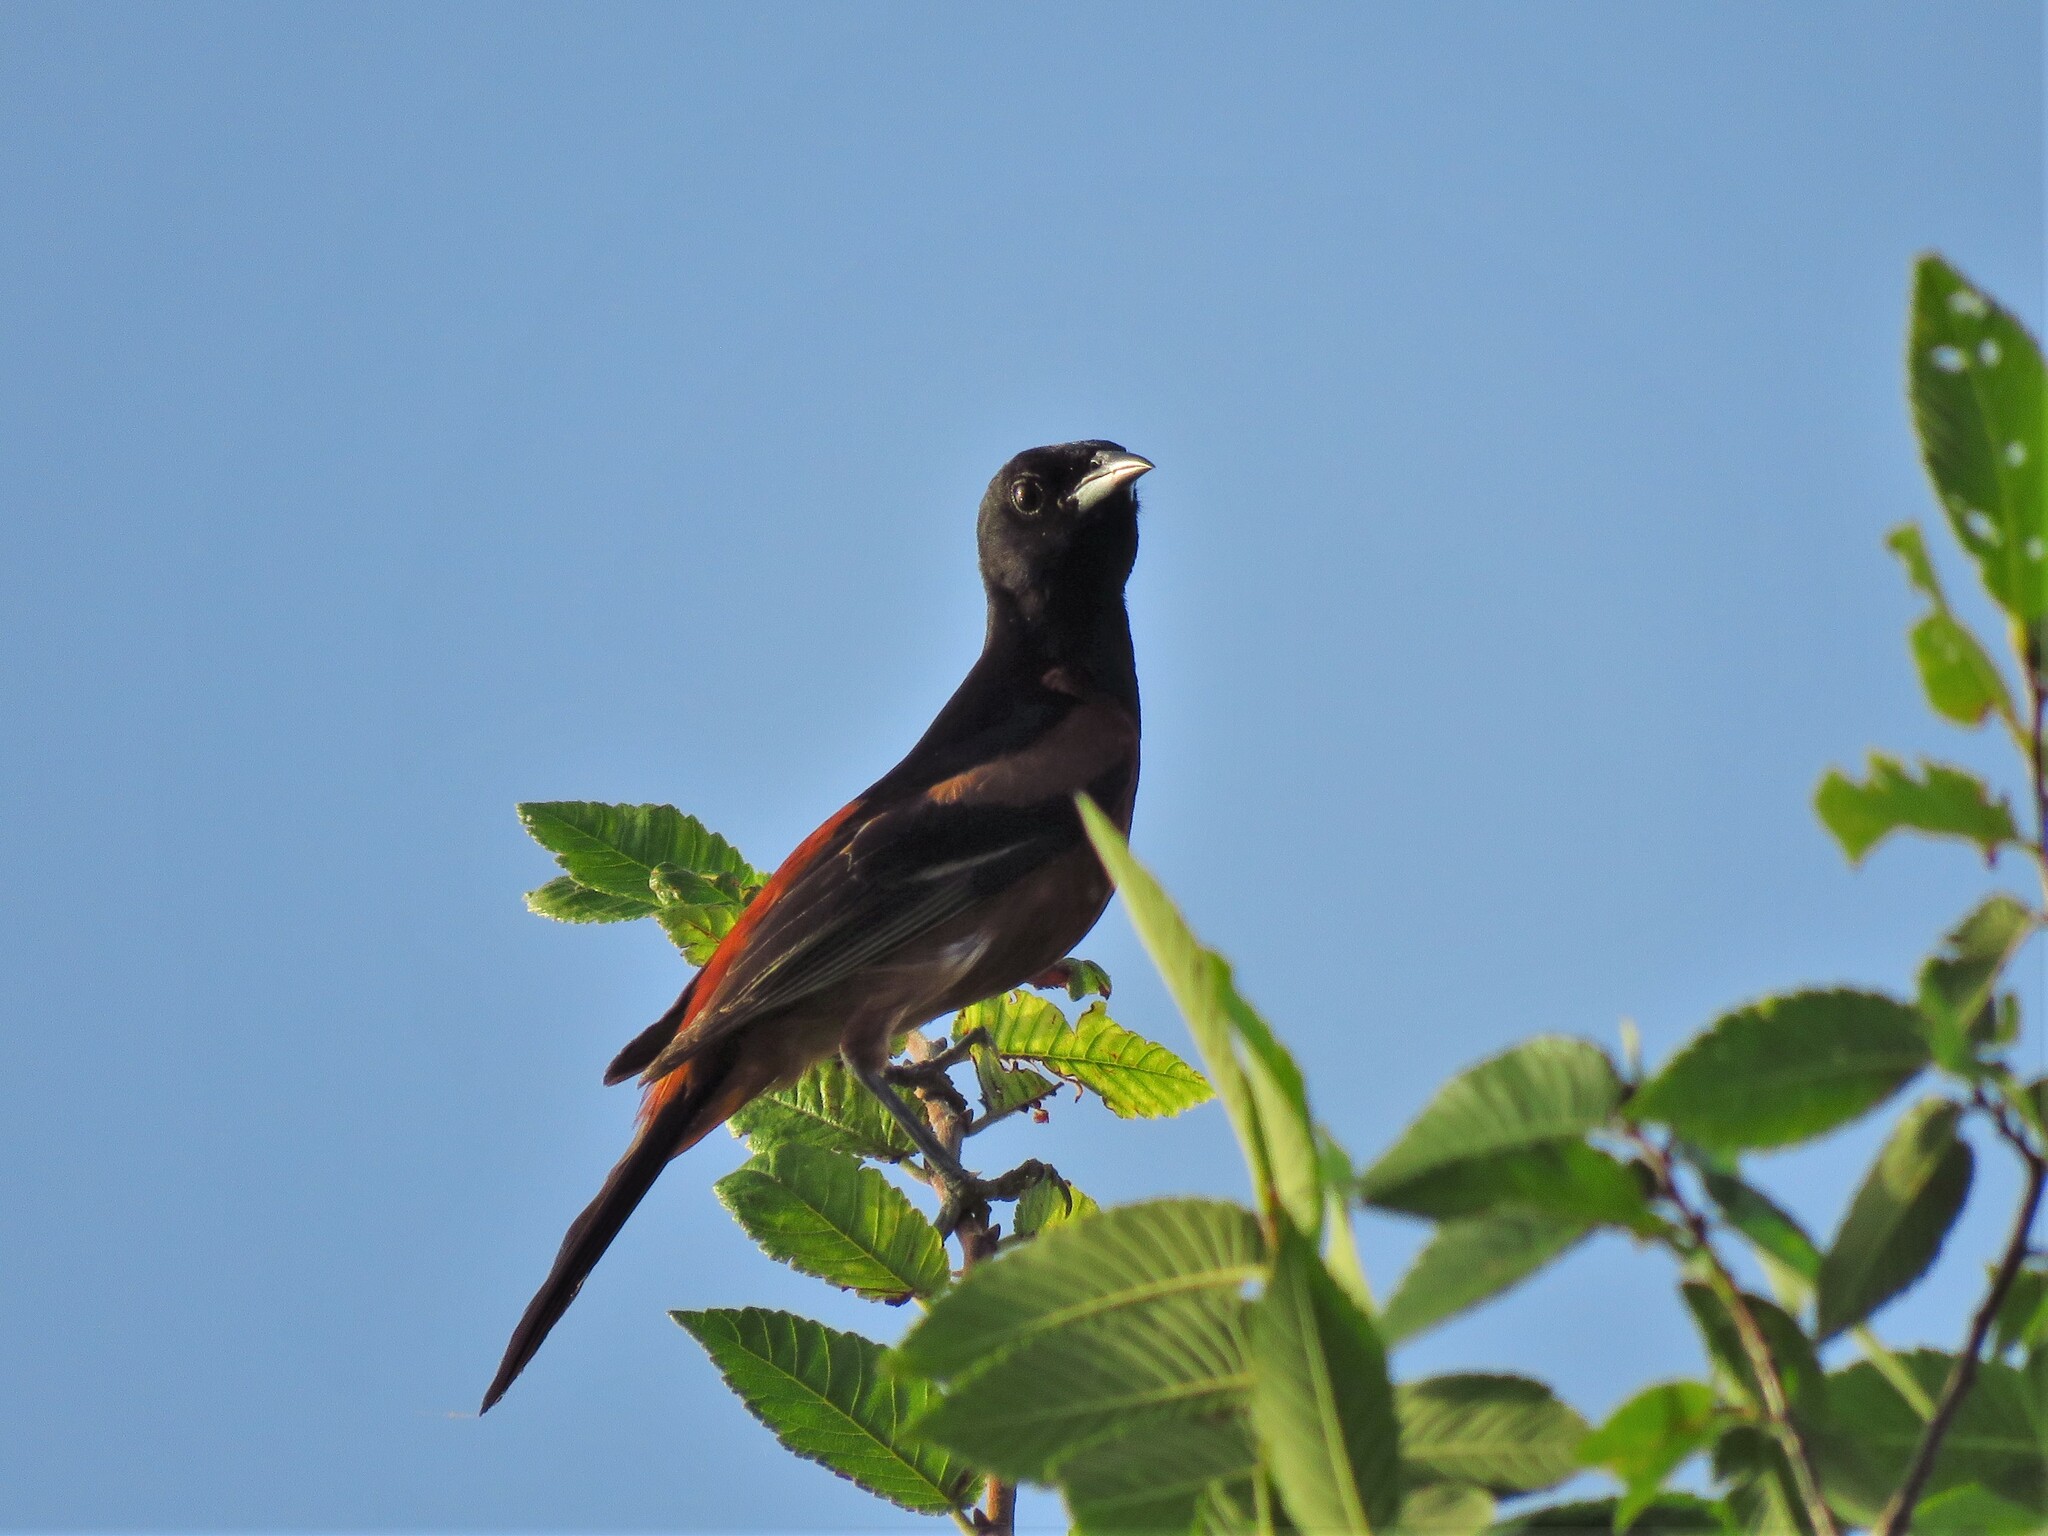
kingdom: Animalia
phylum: Chordata
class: Aves
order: Passeriformes
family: Icteridae
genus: Icterus
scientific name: Icterus spurius
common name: Orchard oriole
